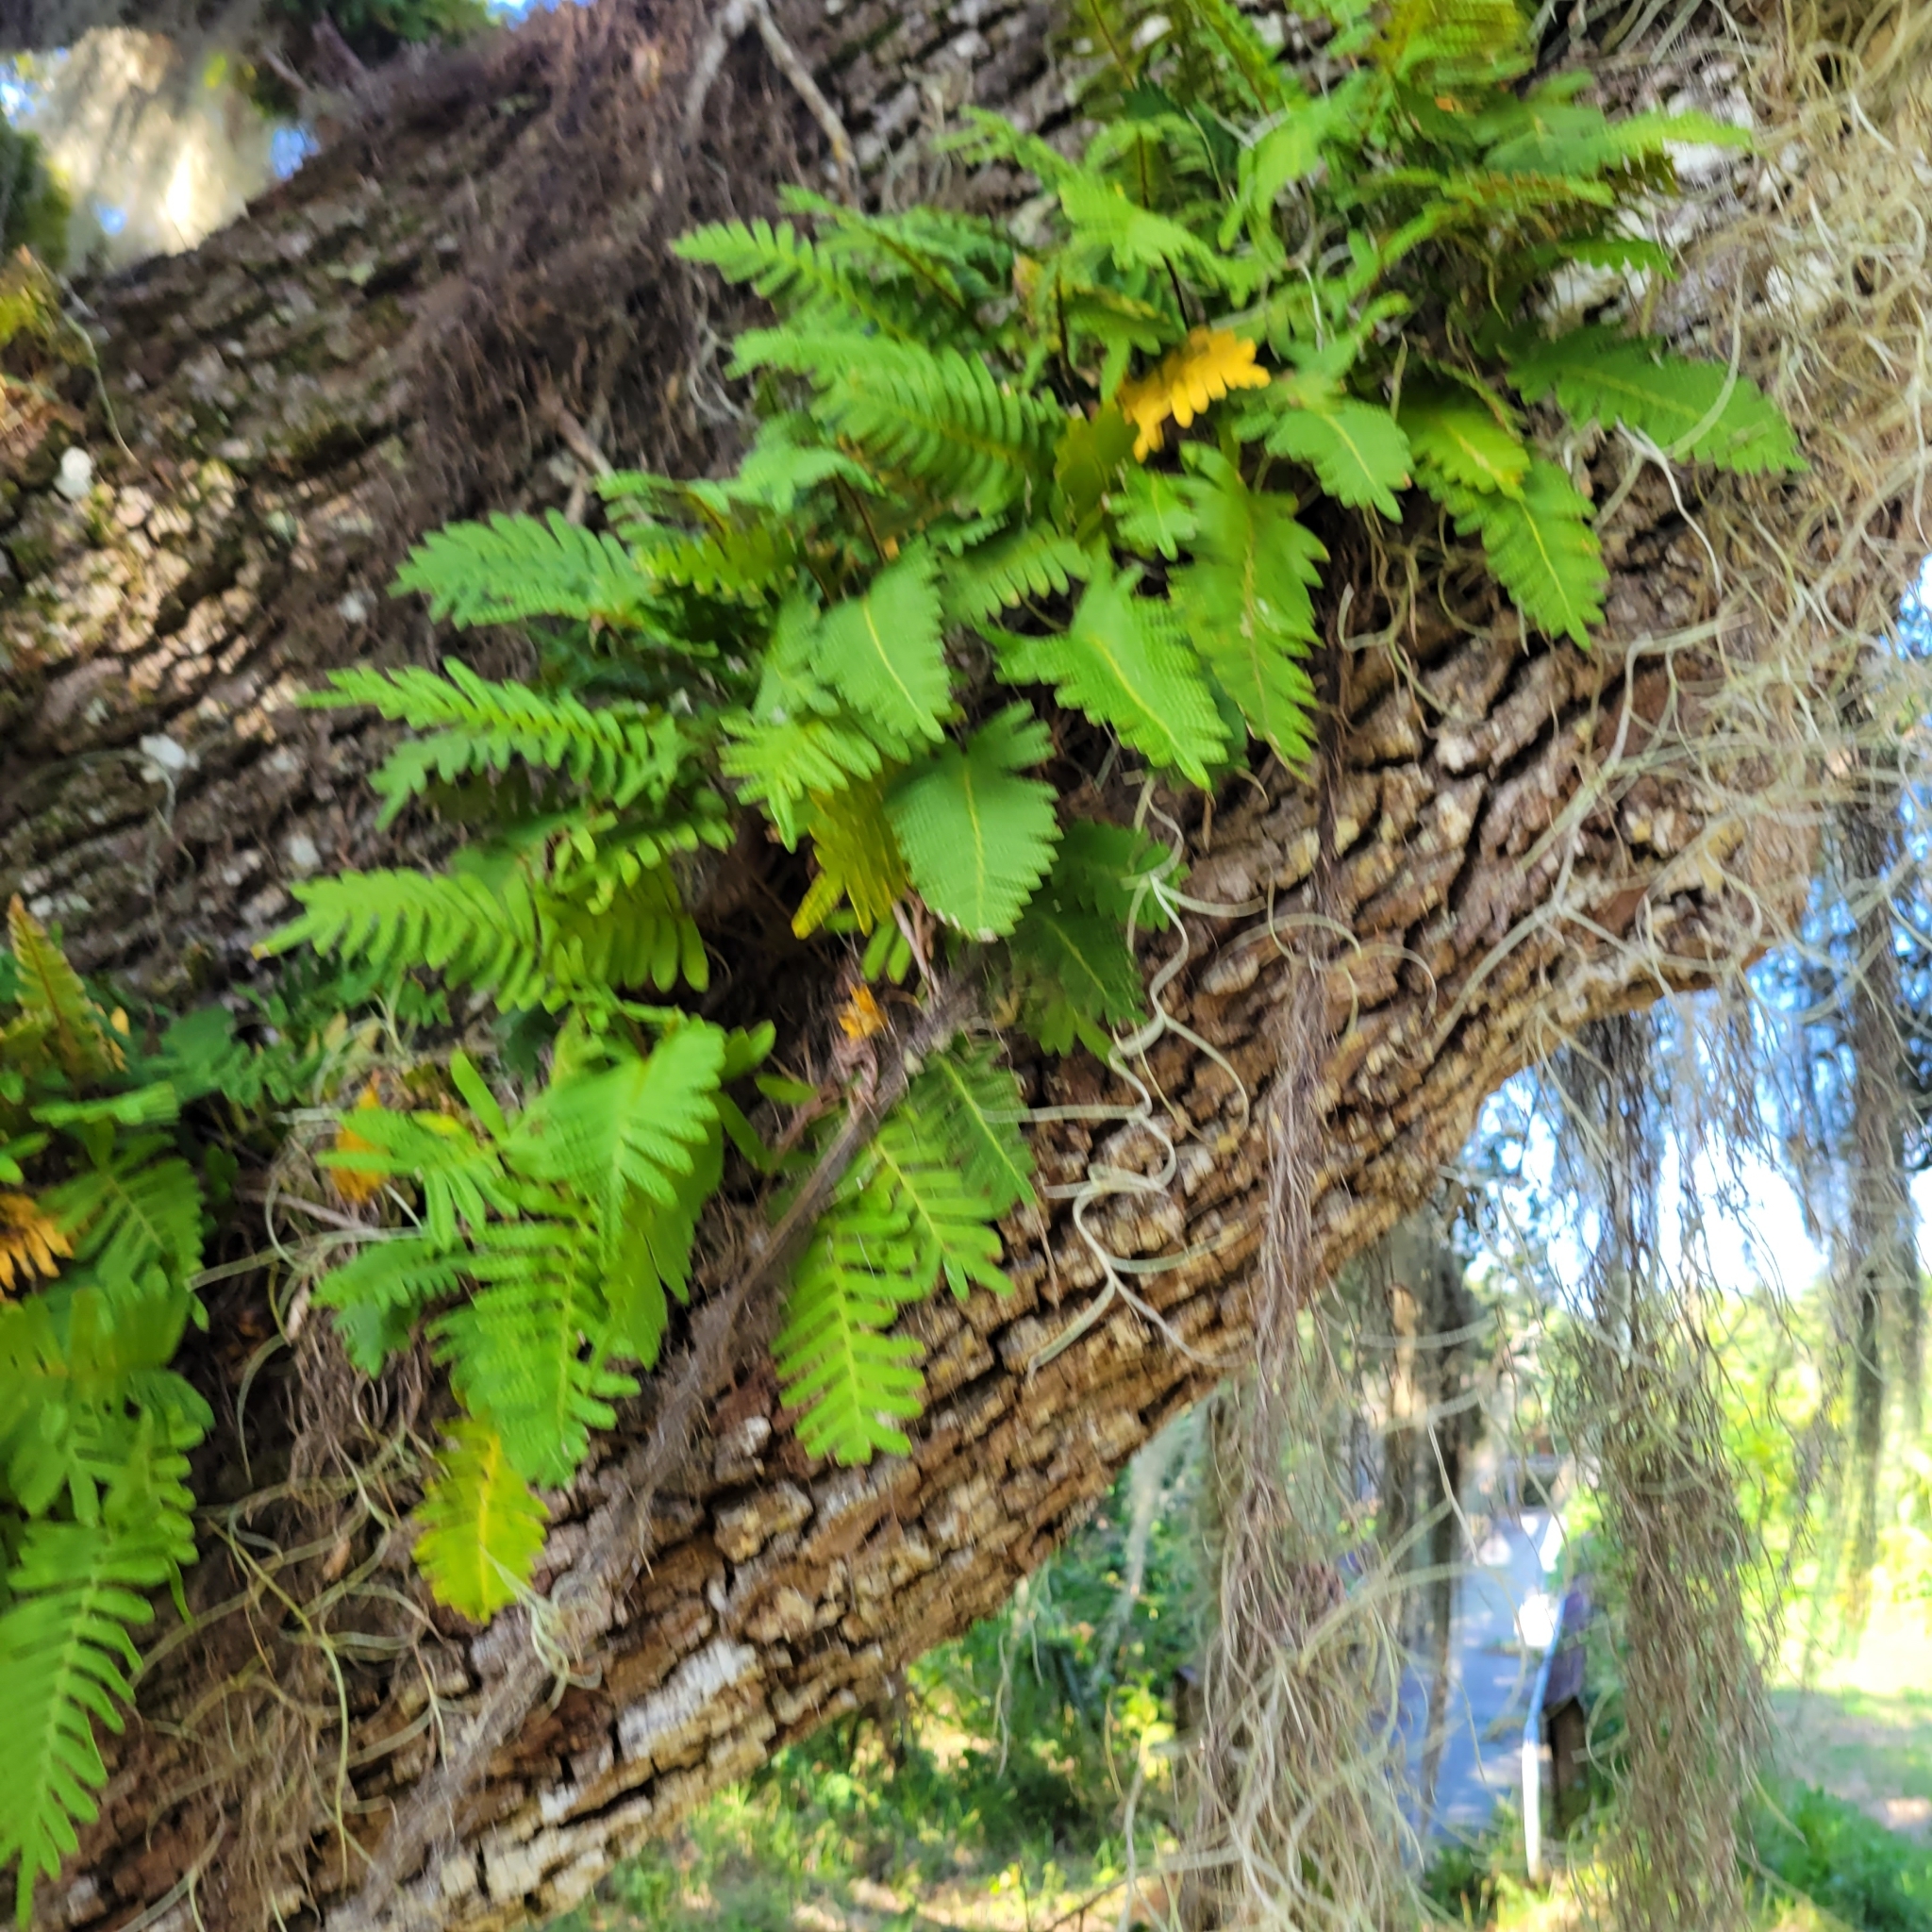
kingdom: Plantae
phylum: Tracheophyta
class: Polypodiopsida
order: Polypodiales
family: Polypodiaceae
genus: Pleopeltis
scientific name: Pleopeltis michauxiana
